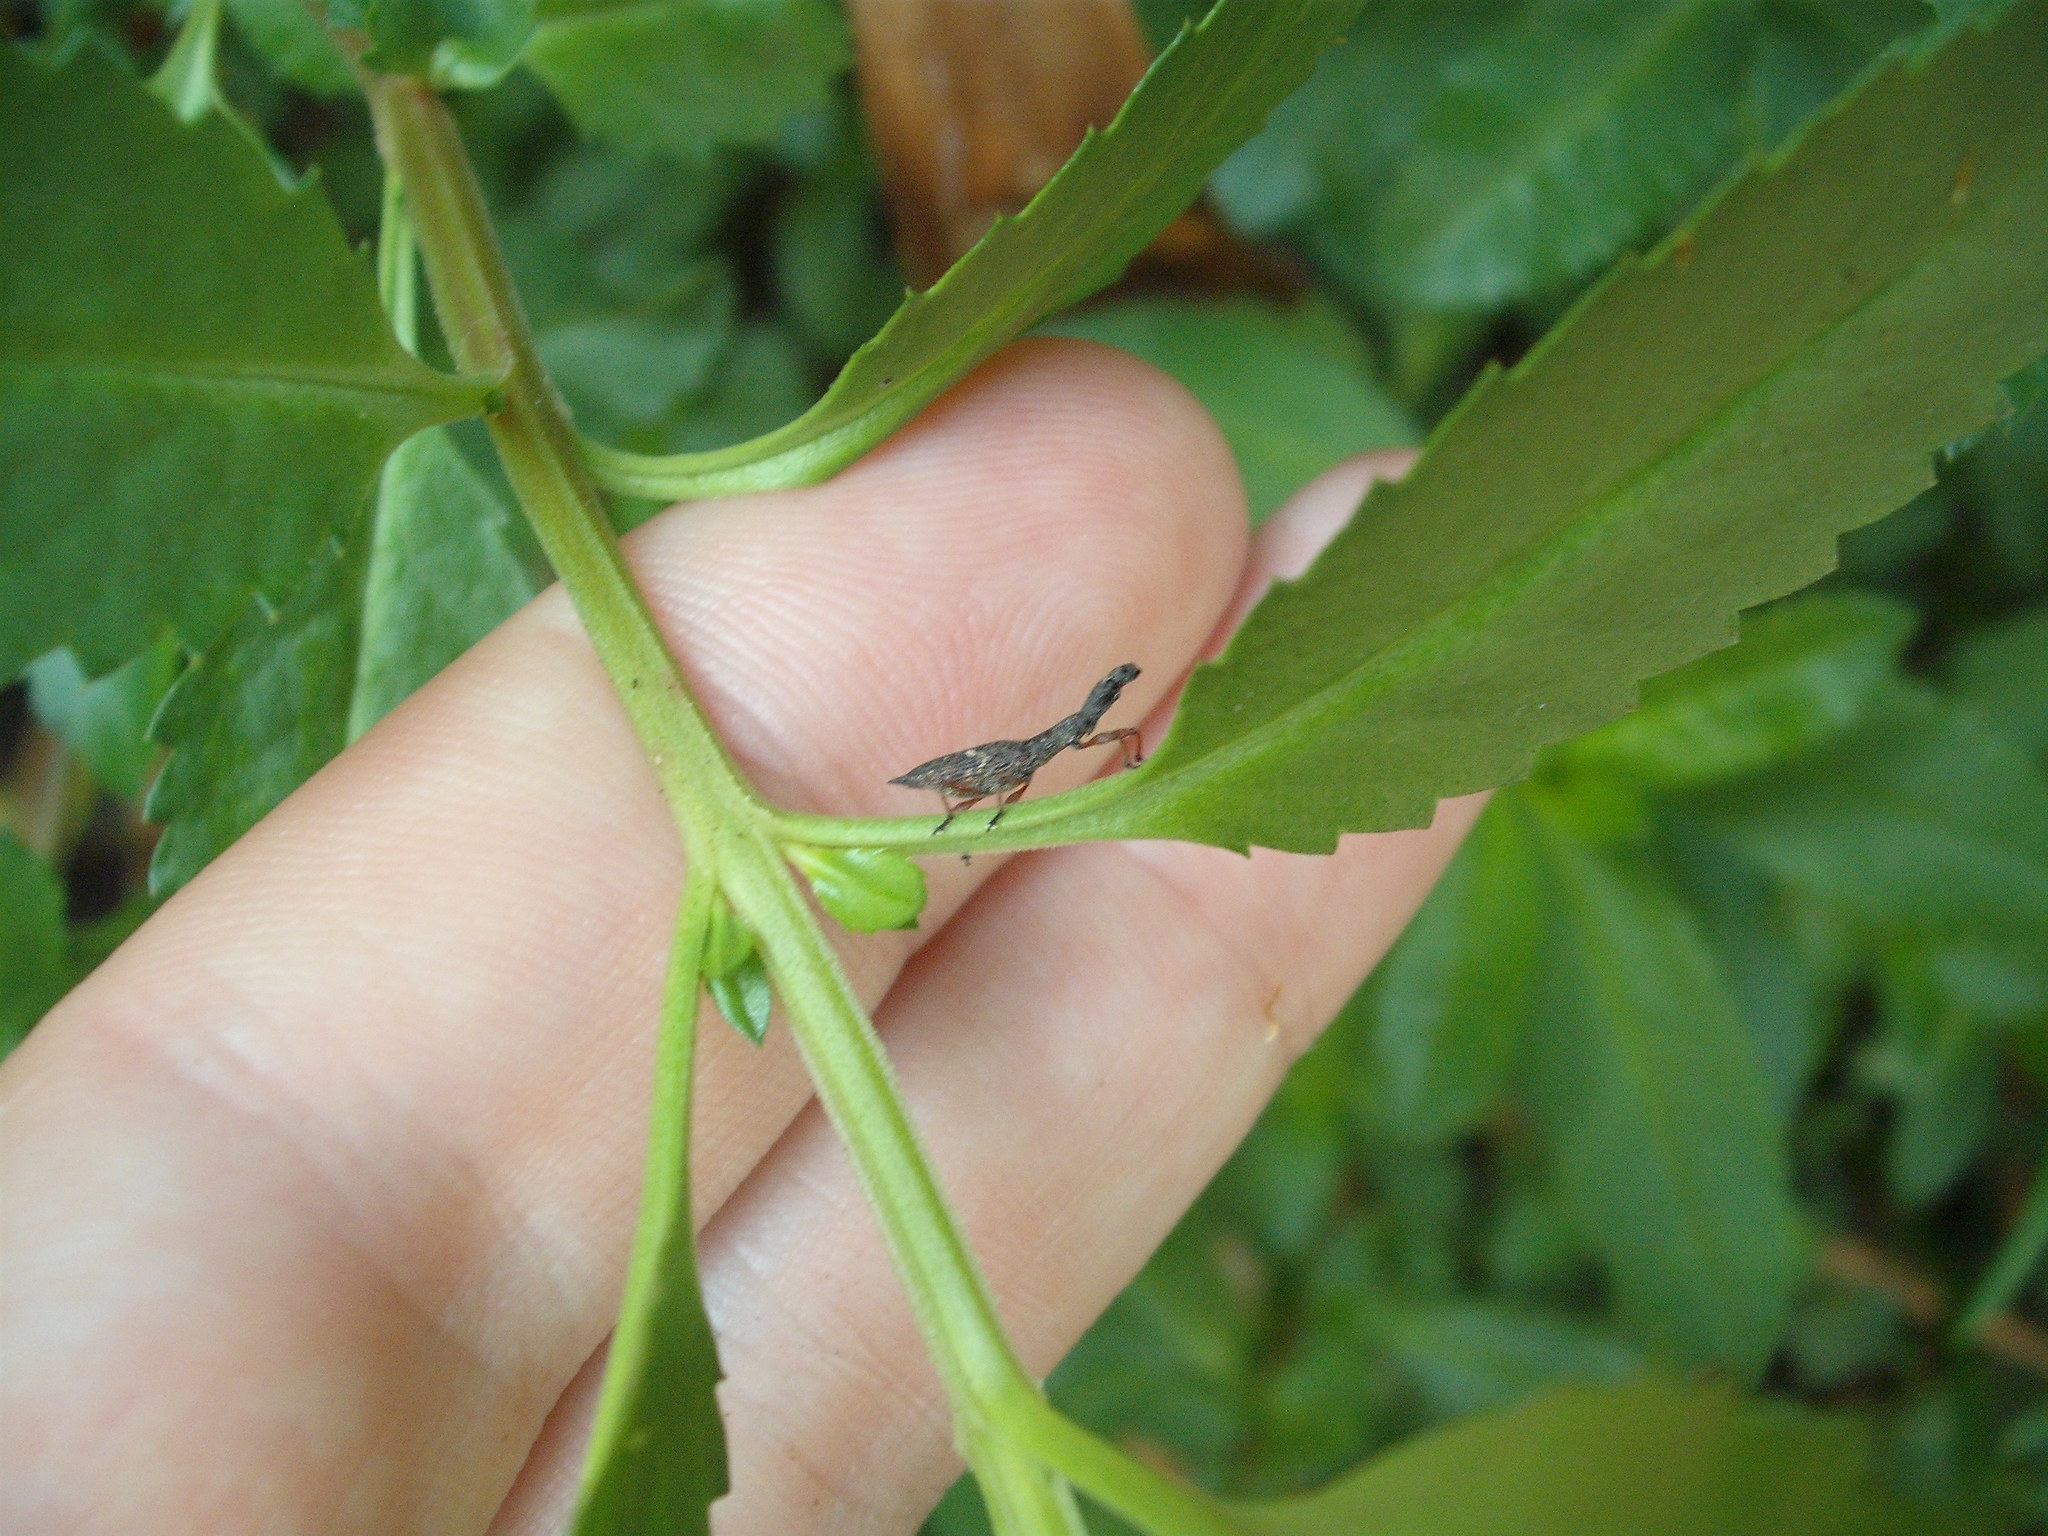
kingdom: Animalia
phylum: Arthropoda
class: Insecta
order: Coleoptera
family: Curculionidae
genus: Rhadinosomus
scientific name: Rhadinosomus acuminatus
